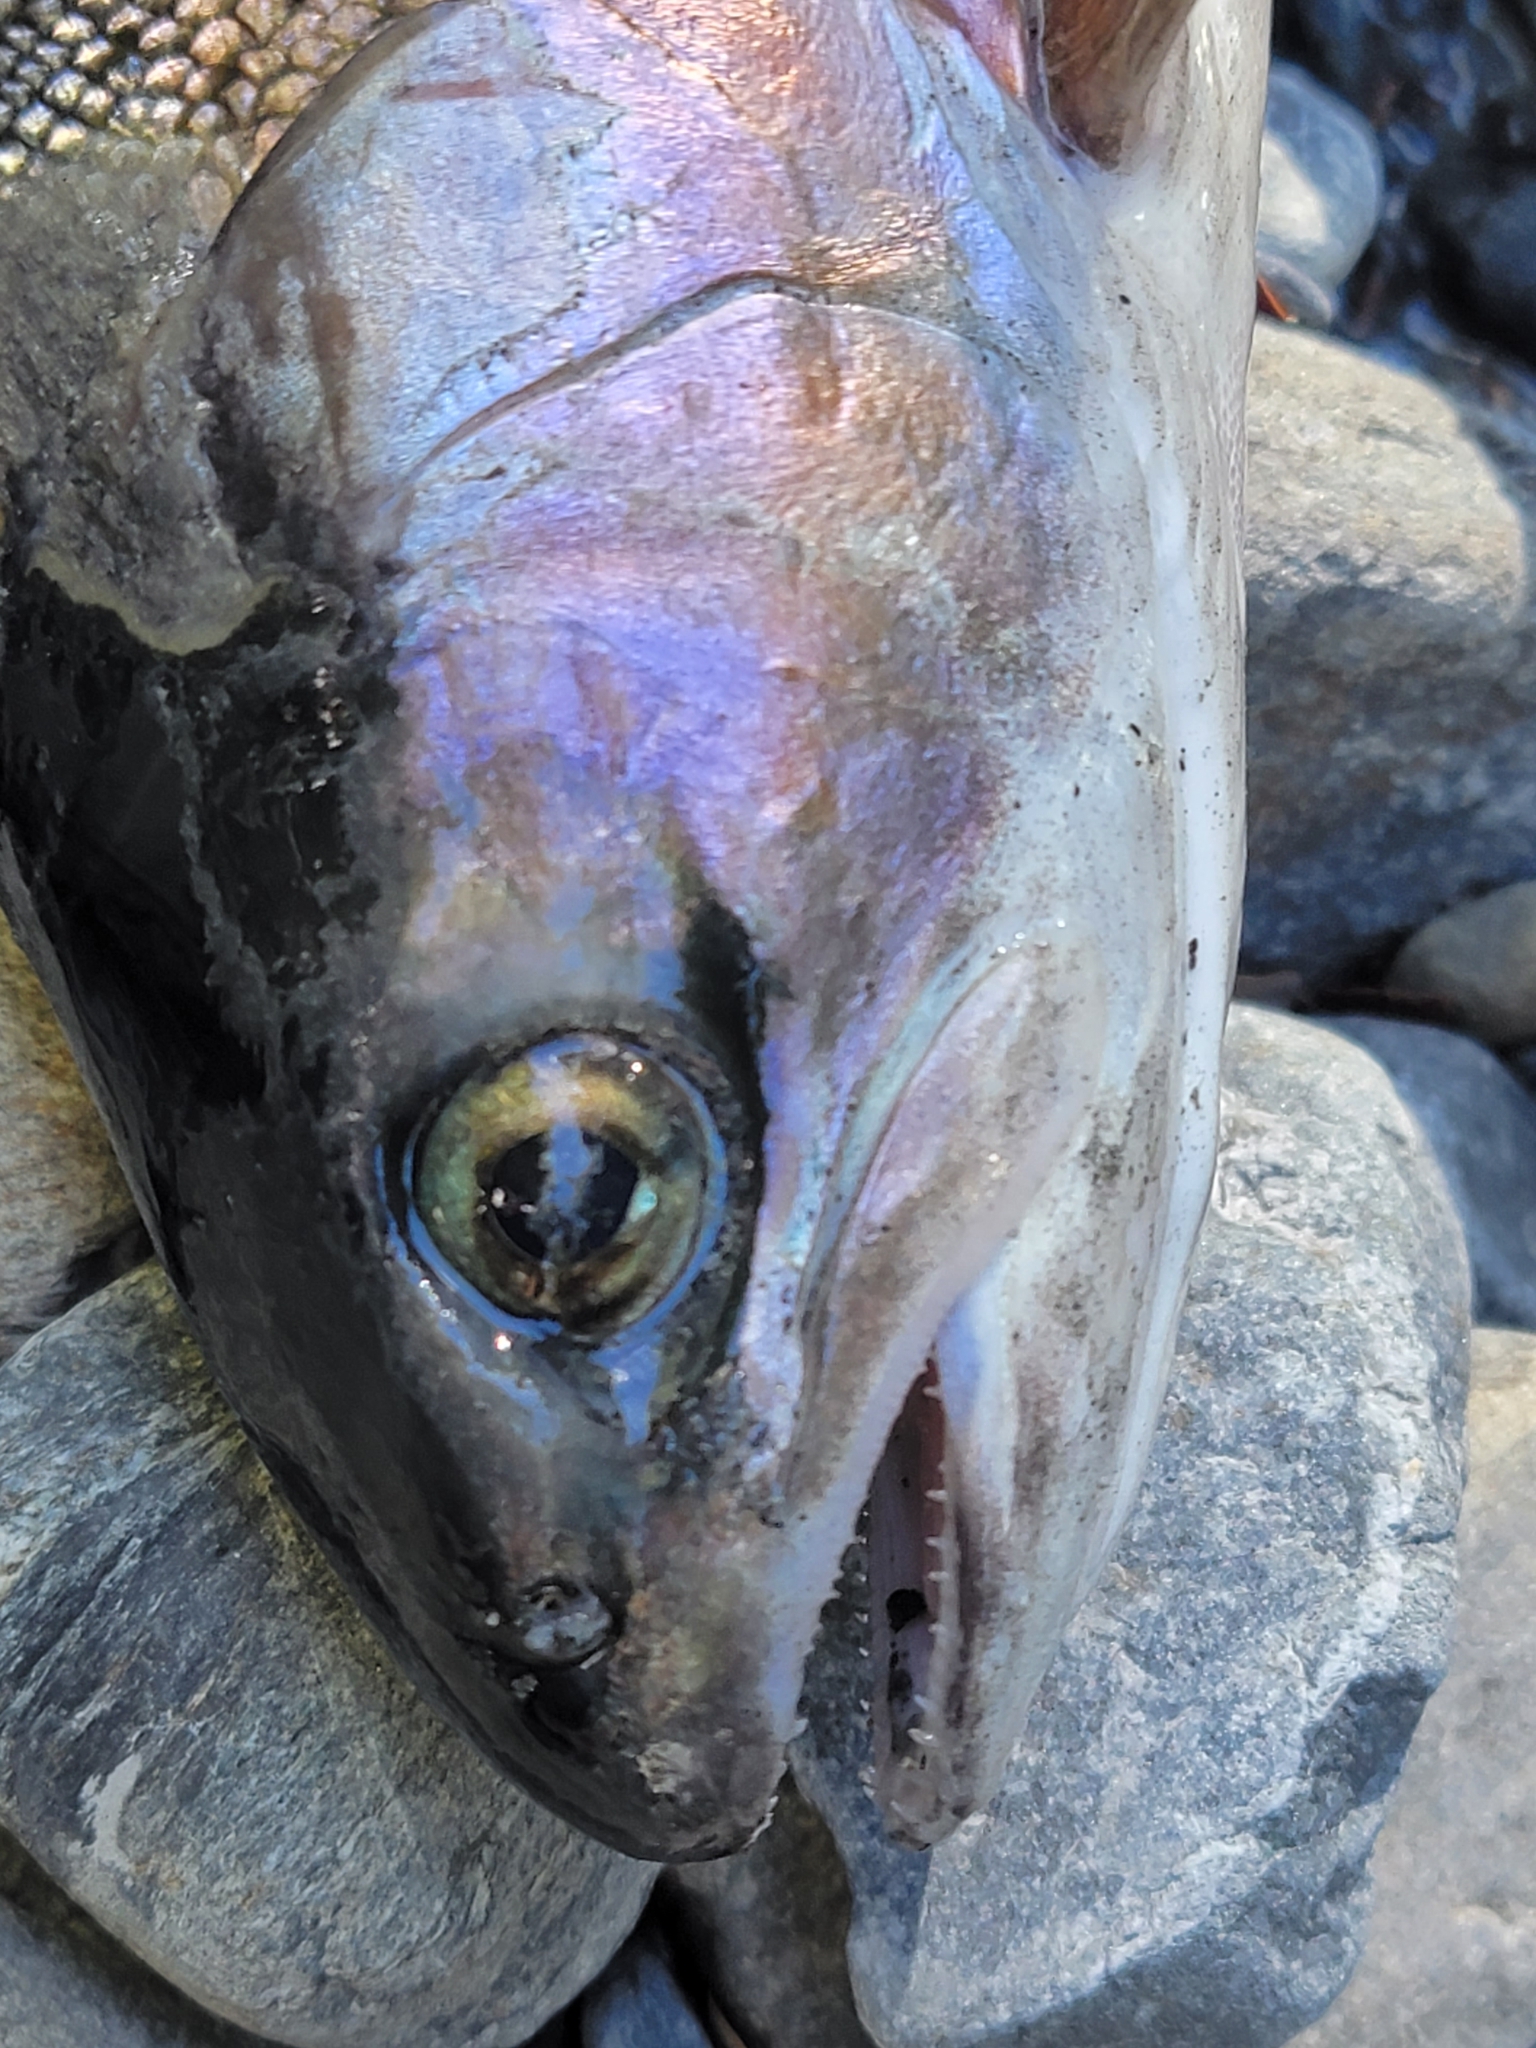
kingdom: Animalia
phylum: Chordata
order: Salmoniformes
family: Salmonidae
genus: Oncorhynchus
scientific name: Oncorhynchus mykiss
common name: Rainbow trout
